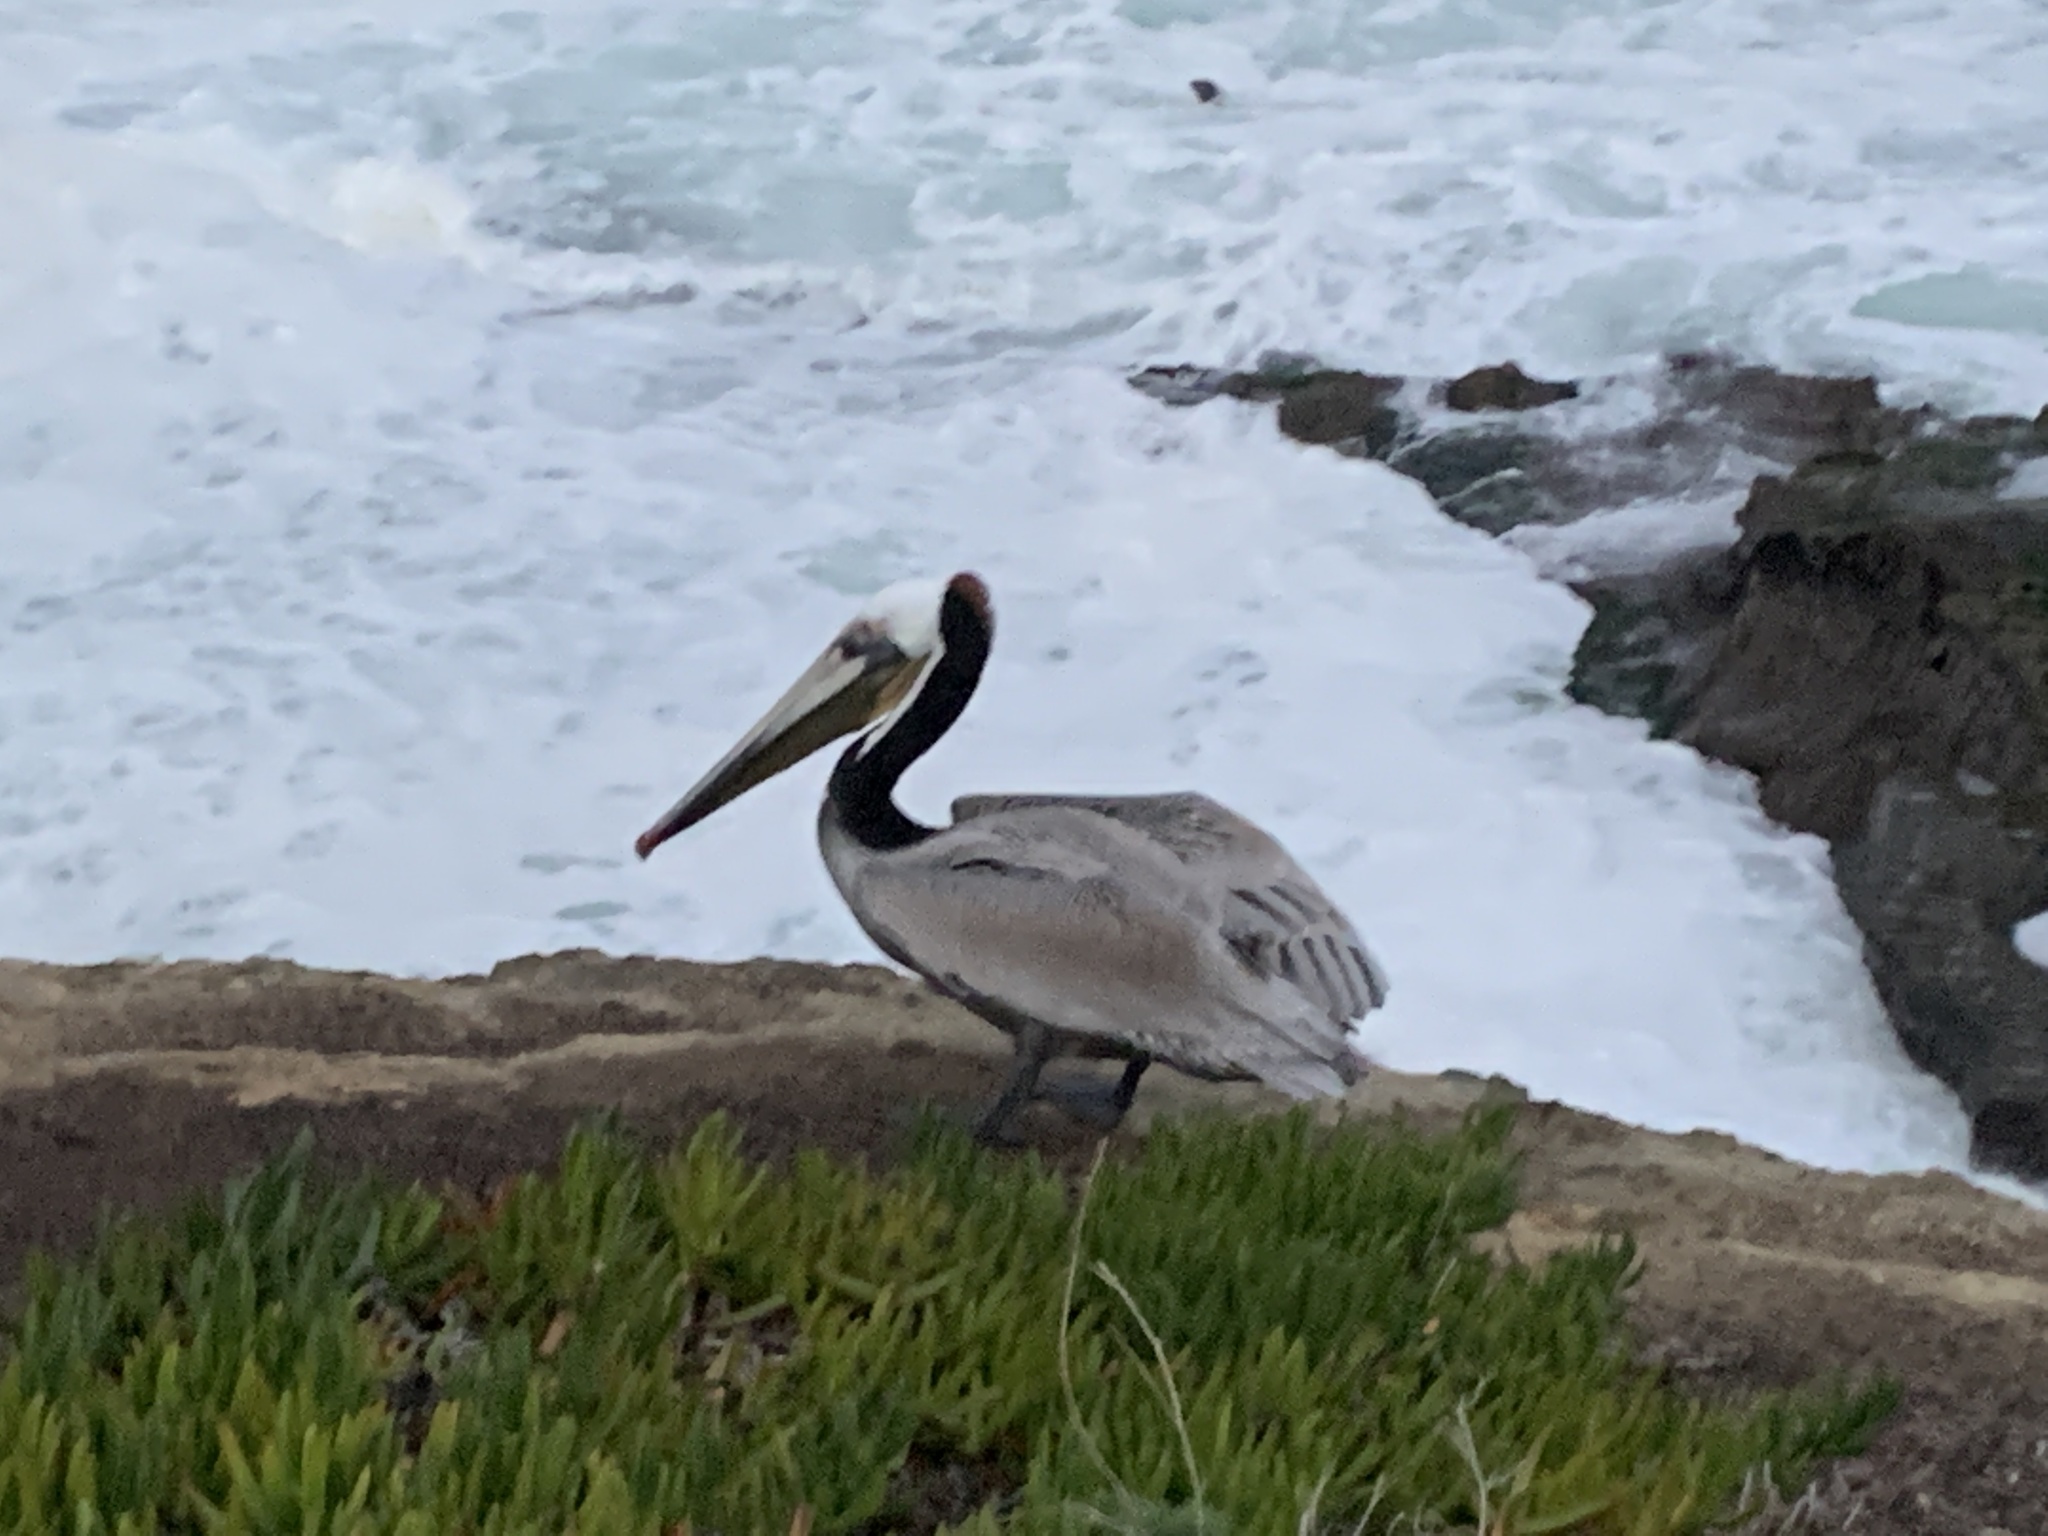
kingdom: Animalia
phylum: Chordata
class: Aves
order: Pelecaniformes
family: Pelecanidae
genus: Pelecanus
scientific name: Pelecanus occidentalis
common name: Brown pelican
